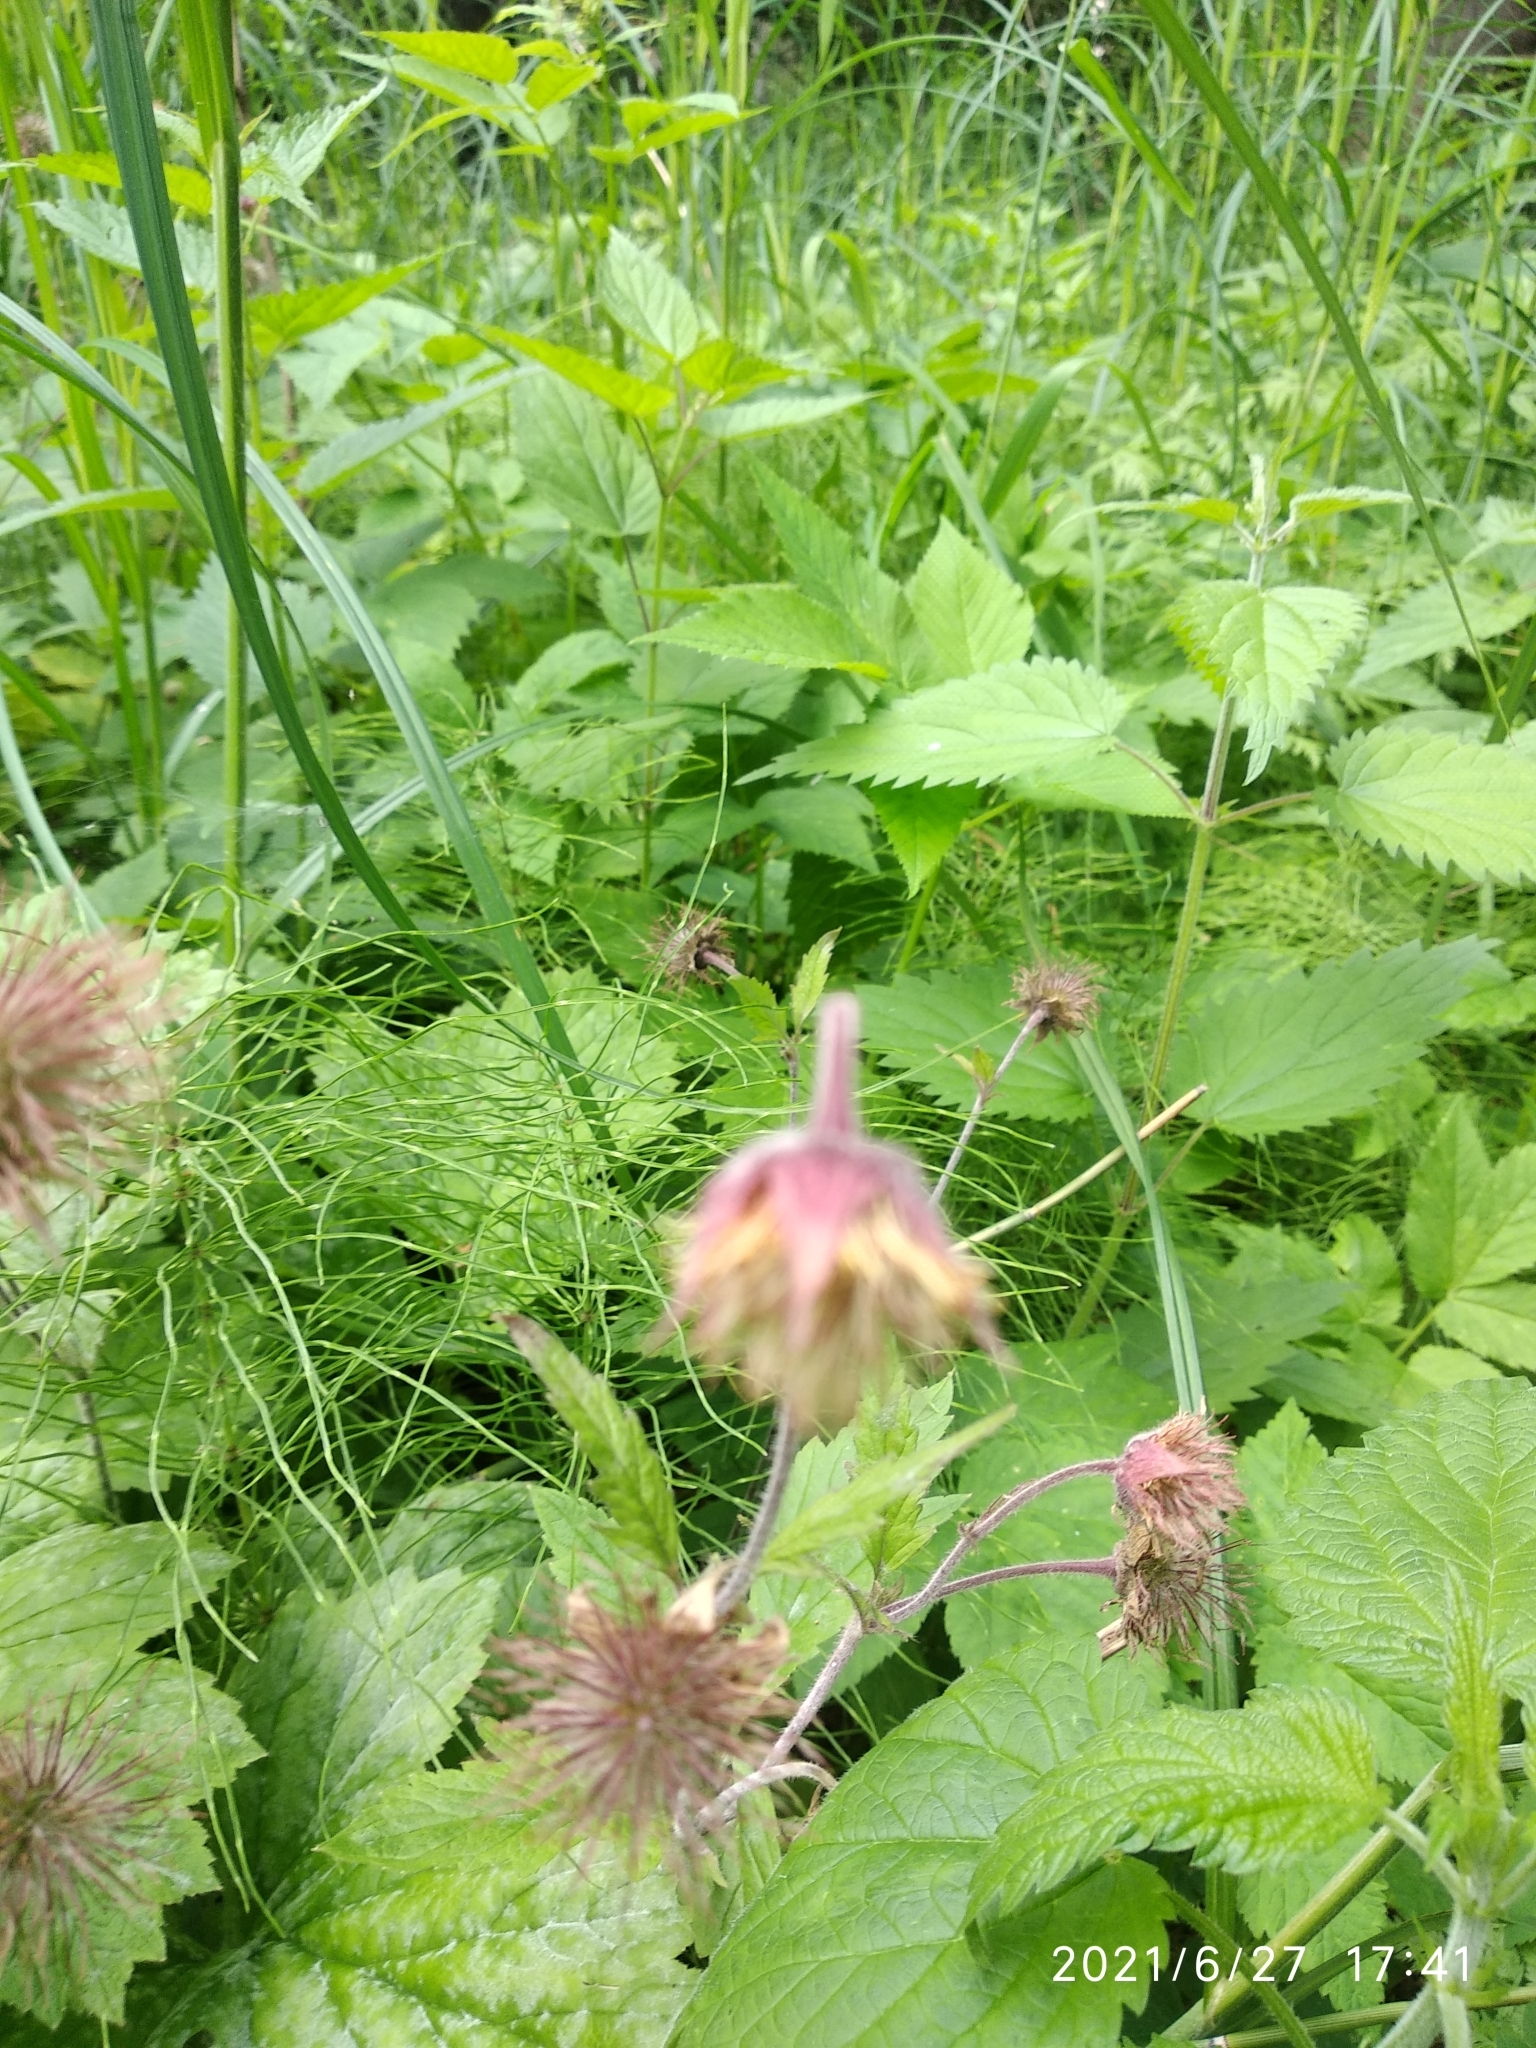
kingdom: Plantae
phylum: Tracheophyta
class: Magnoliopsida
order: Rosales
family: Rosaceae
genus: Geum
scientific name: Geum rivale
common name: Water avens
